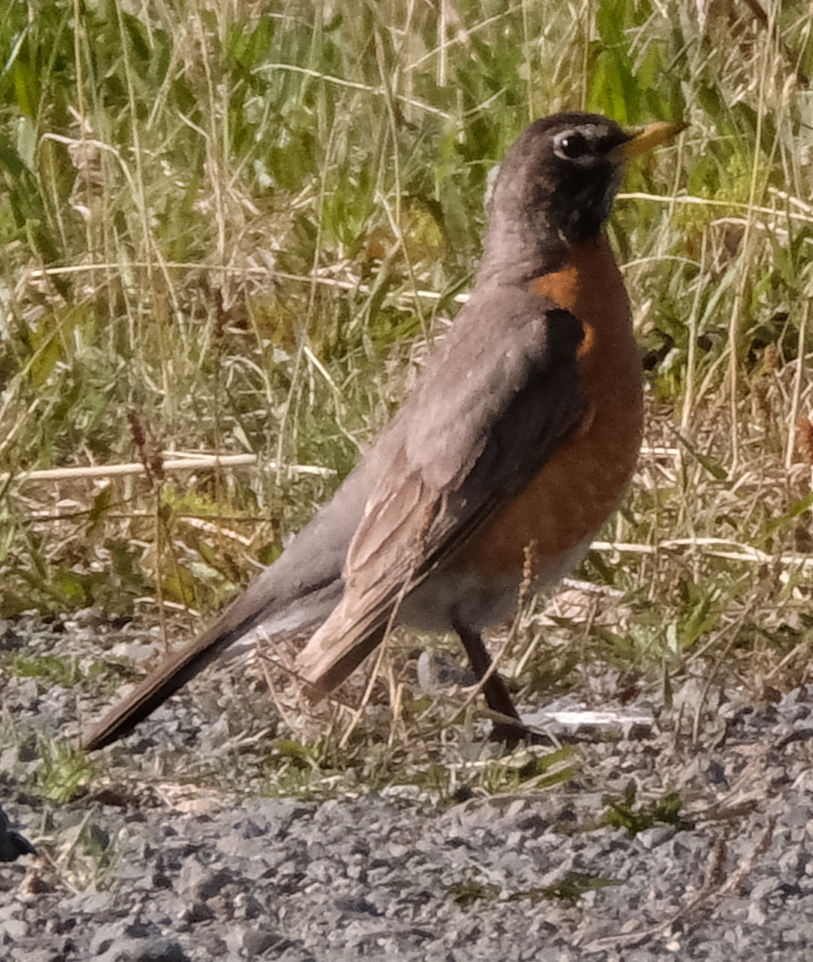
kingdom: Animalia
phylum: Chordata
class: Aves
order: Passeriformes
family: Turdidae
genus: Turdus
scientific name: Turdus migratorius
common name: American robin
